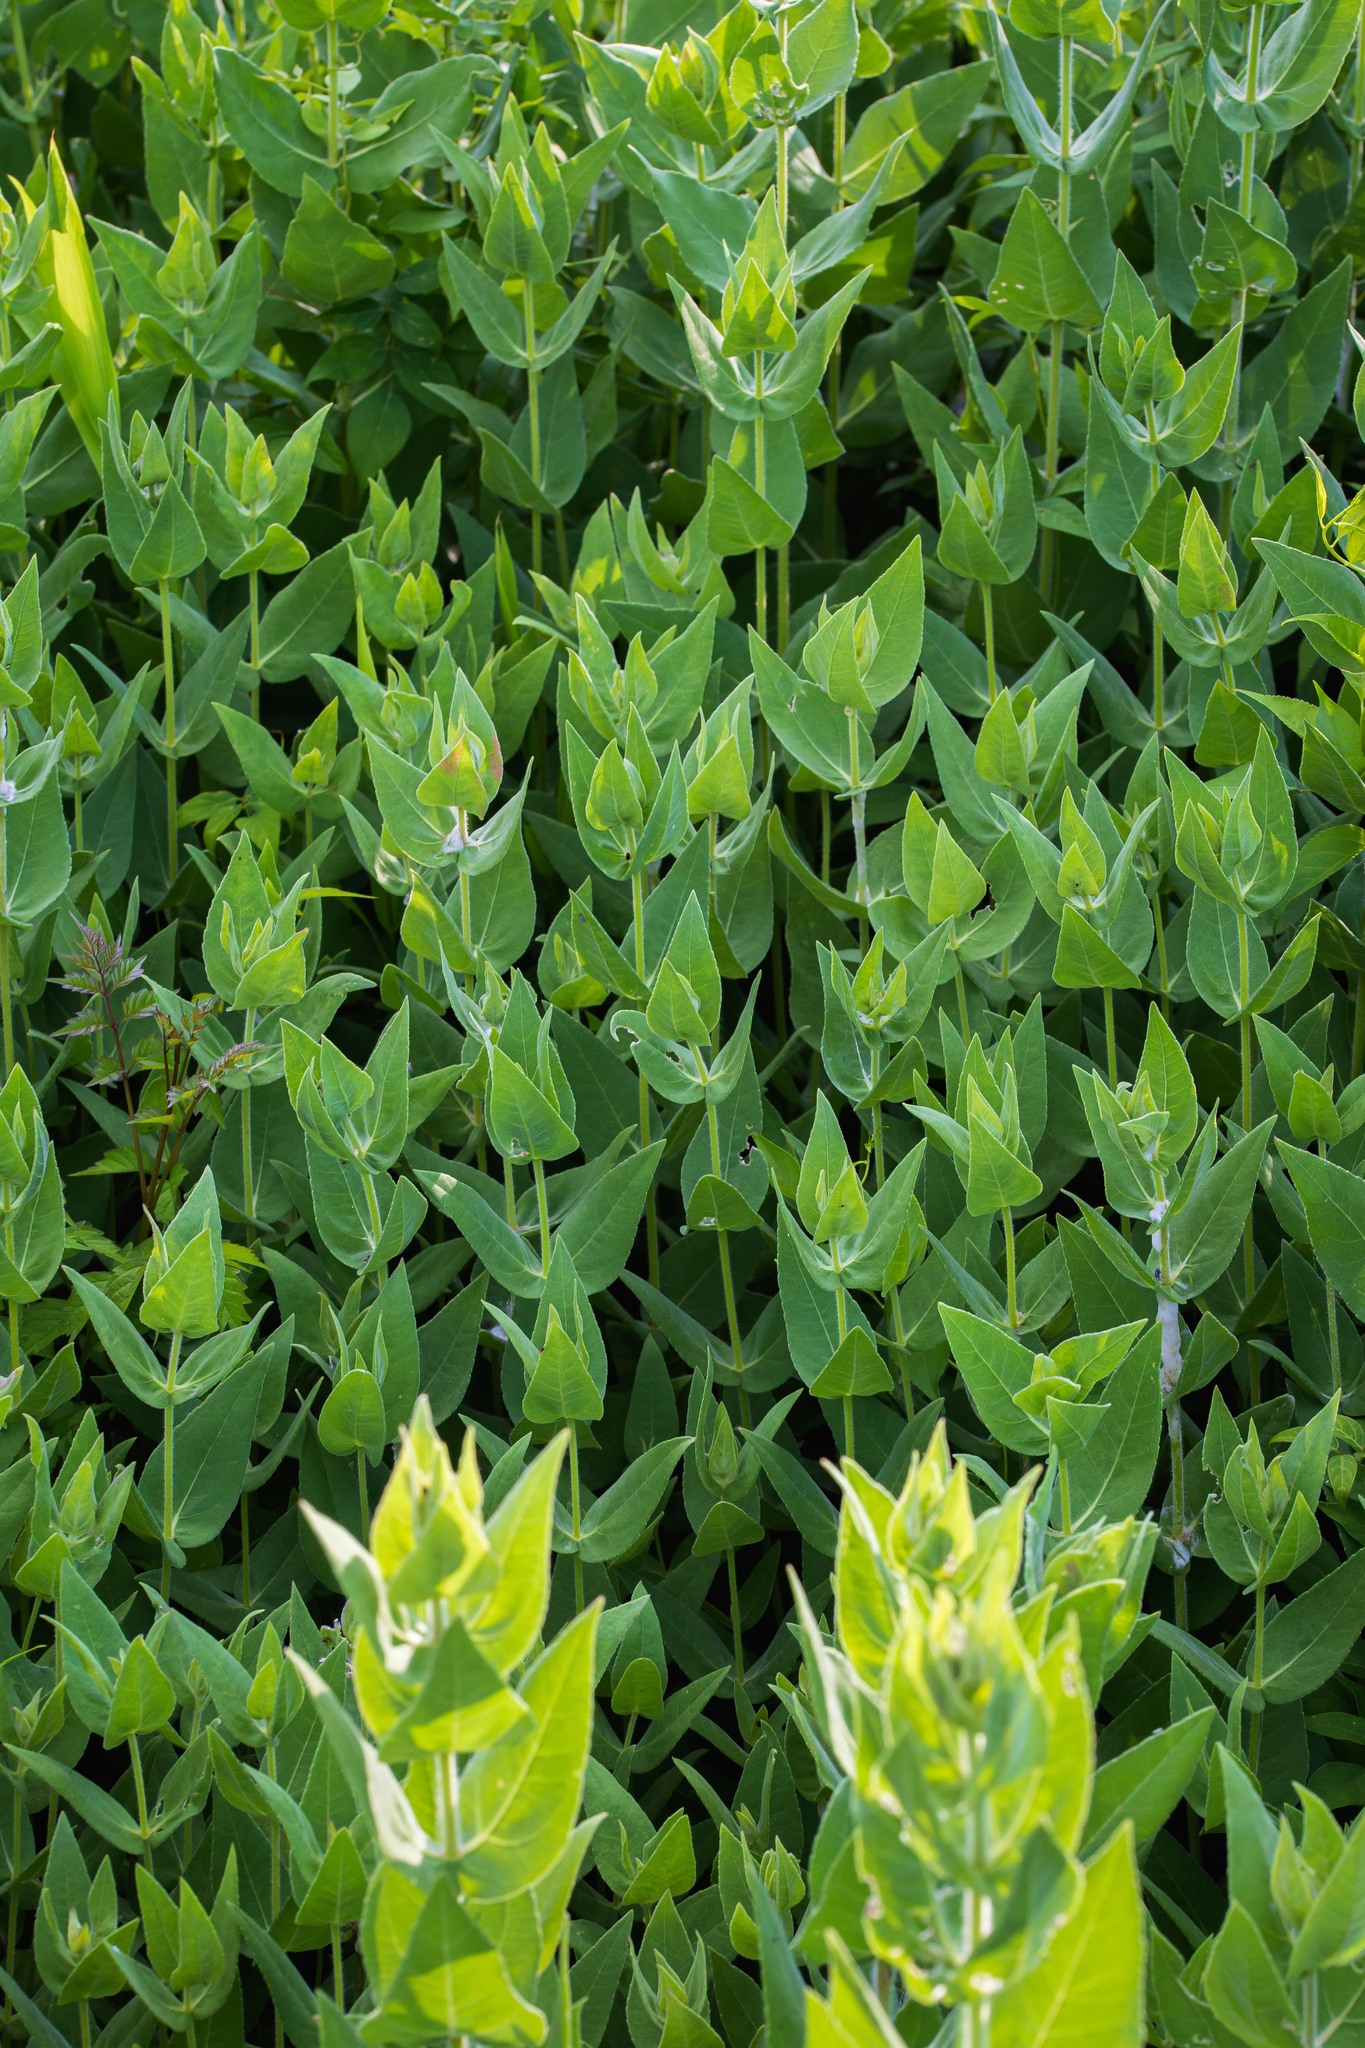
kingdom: Plantae
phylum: Tracheophyta
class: Magnoliopsida
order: Asterales
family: Asteraceae
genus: Helianthus
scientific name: Helianthus mollis
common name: Ashy sunflower
